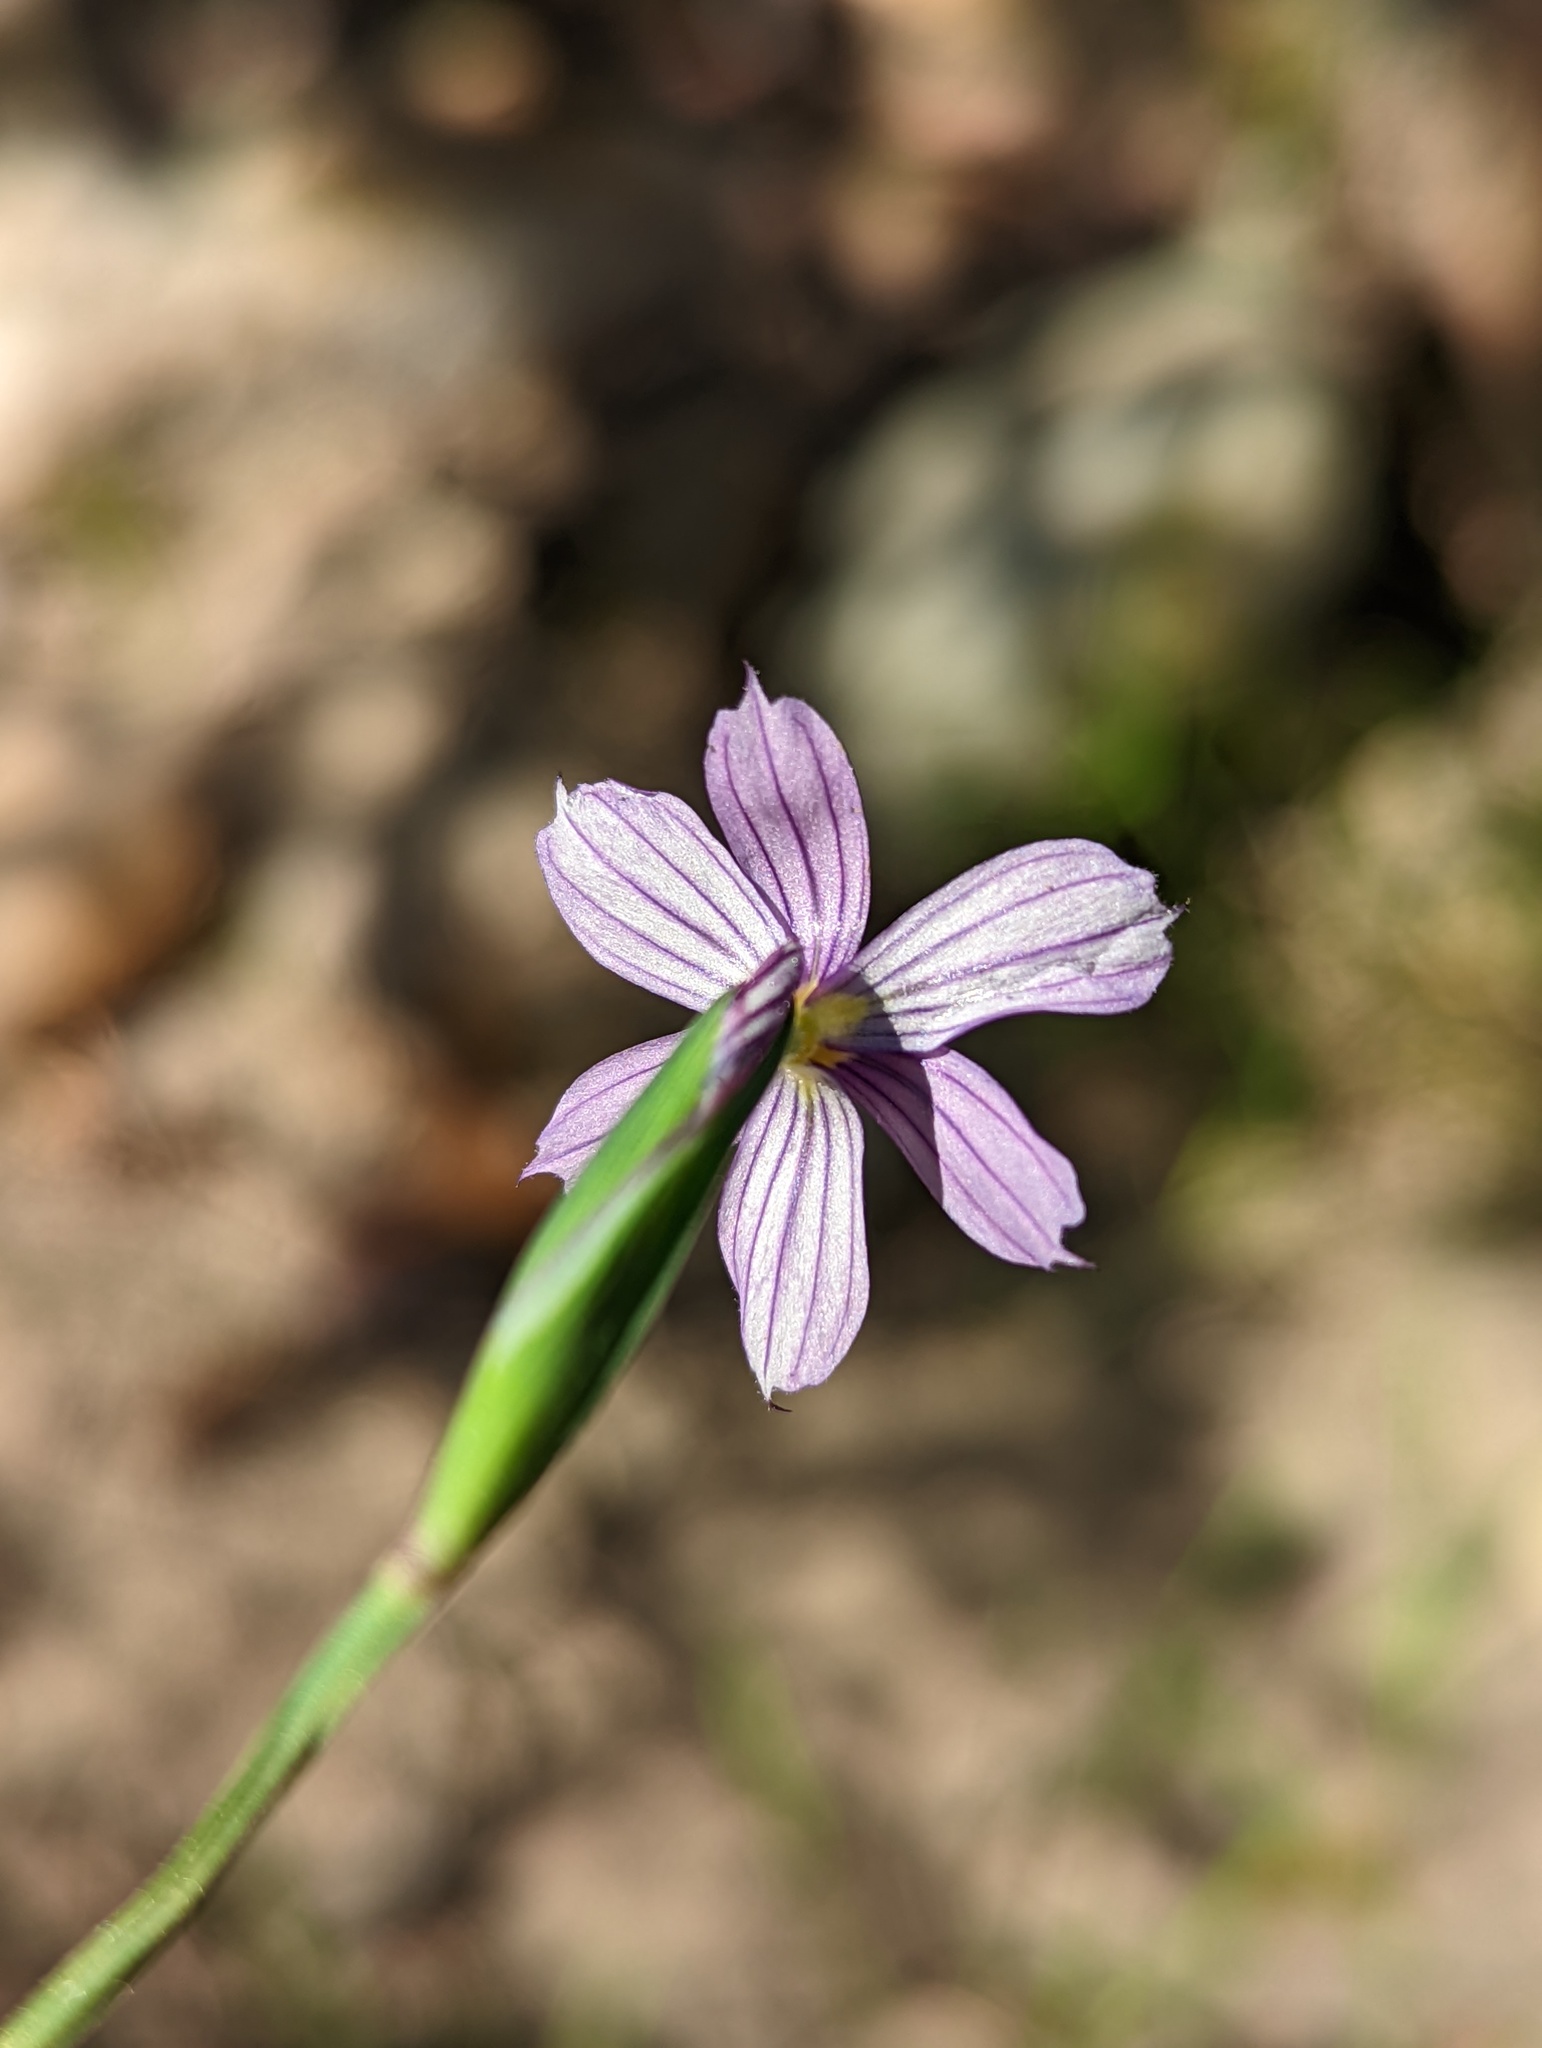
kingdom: Plantae
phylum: Tracheophyta
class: Liliopsida
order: Asparagales
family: Iridaceae
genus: Sisyrinchium
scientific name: Sisyrinchium bellum
